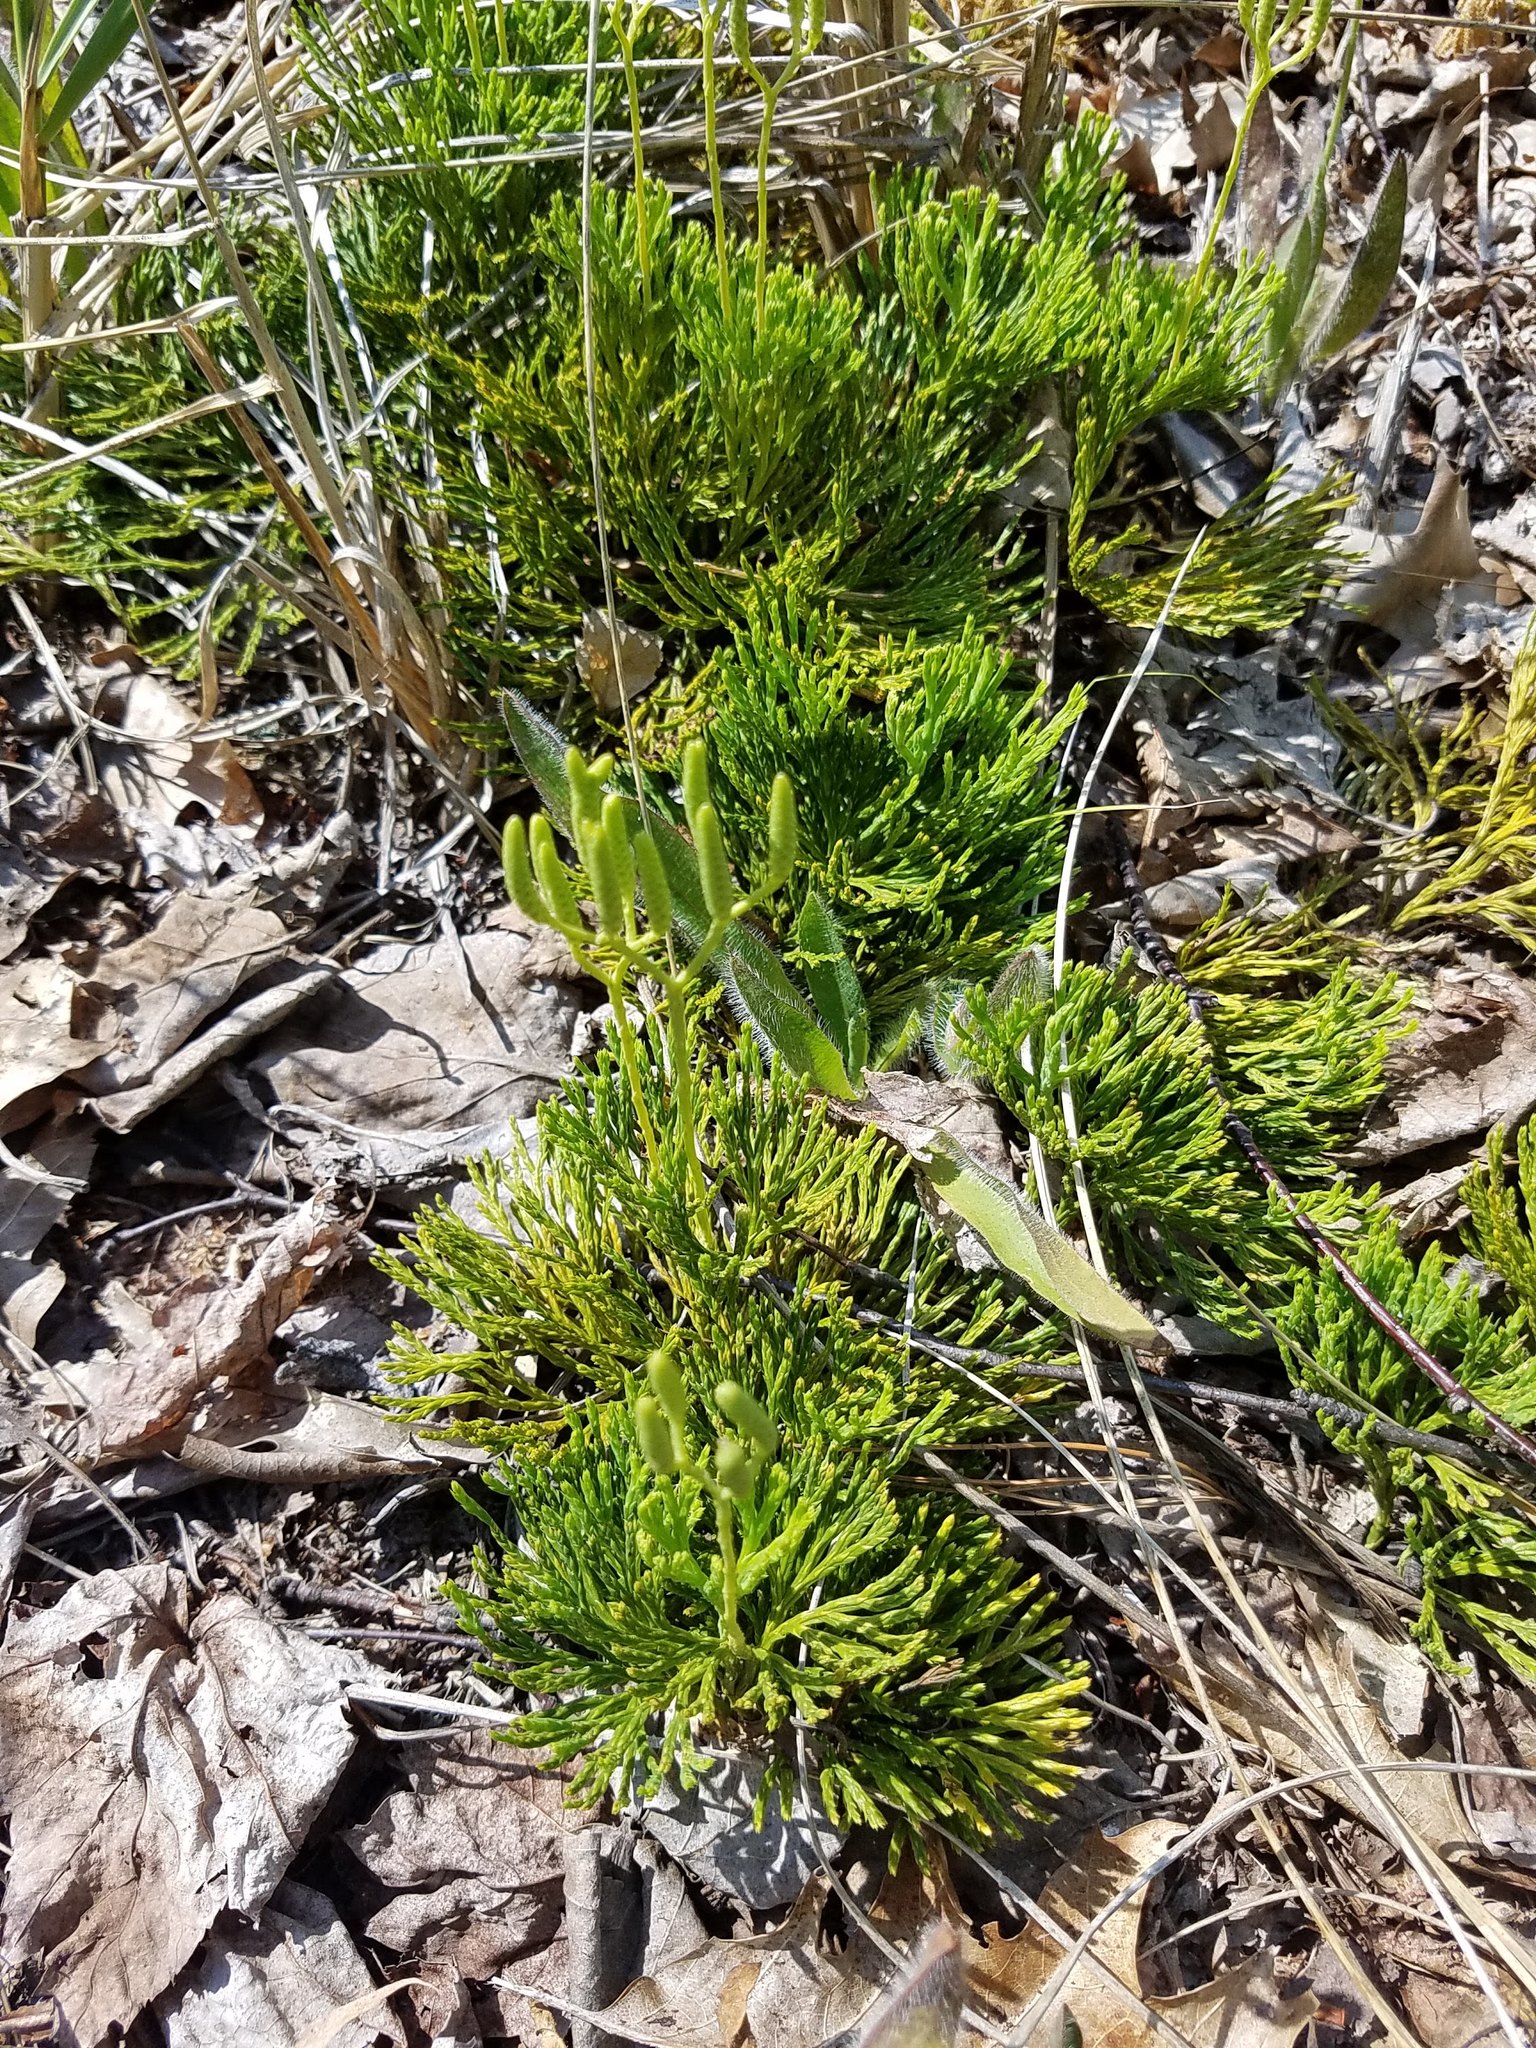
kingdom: Plantae
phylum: Tracheophyta
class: Lycopodiopsida
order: Lycopodiales
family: Lycopodiaceae
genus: Diphasiastrum
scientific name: Diphasiastrum tristachyum
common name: Blue ground-cedar
